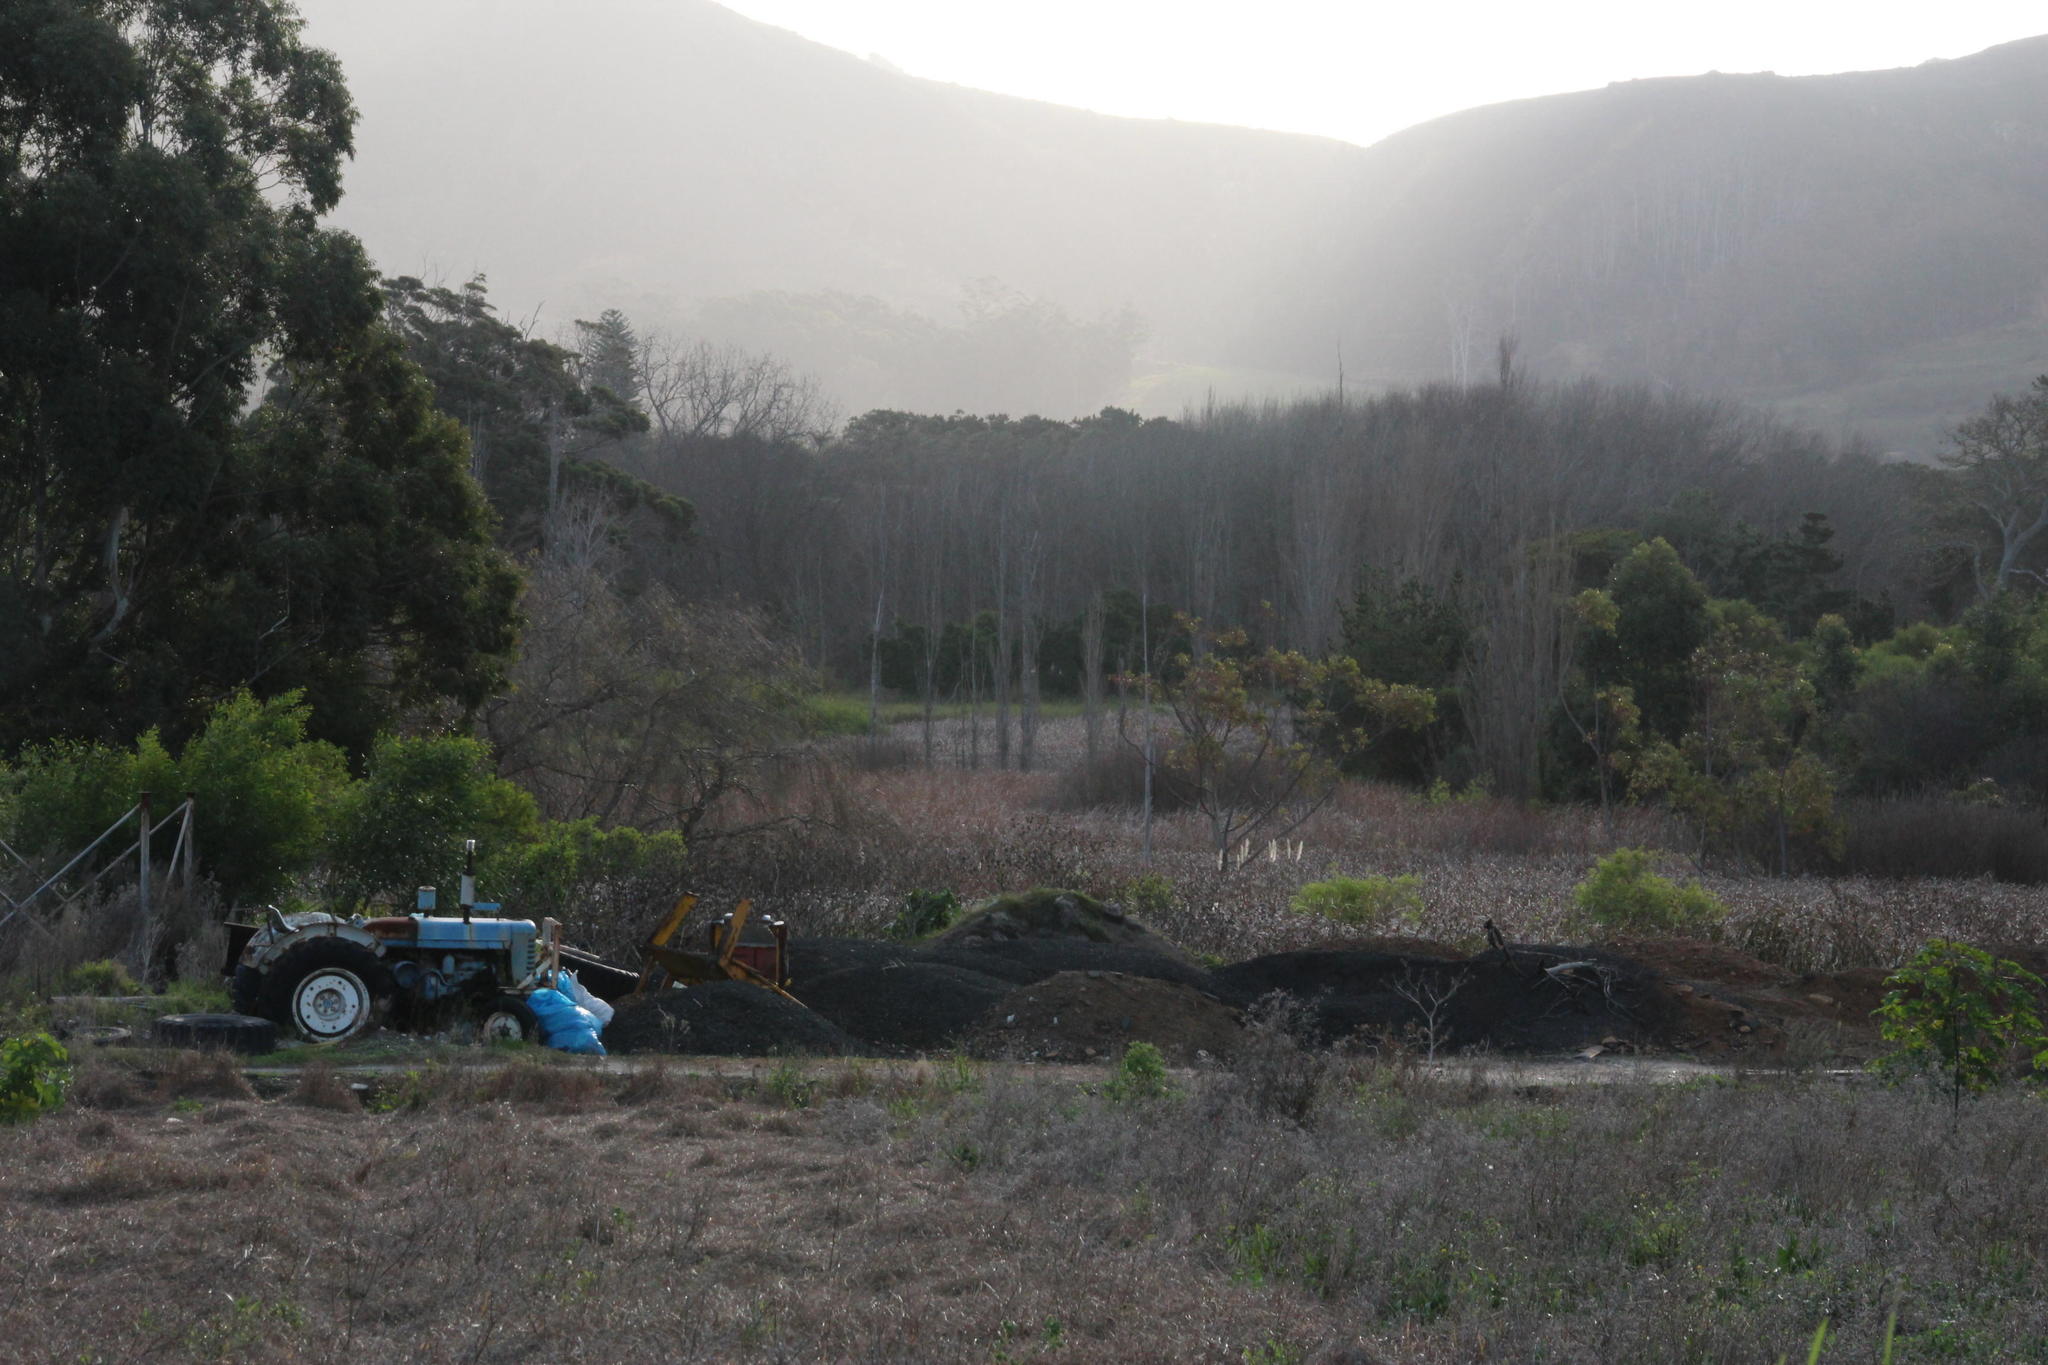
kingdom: Plantae
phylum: Tracheophyta
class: Liliopsida
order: Poales
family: Poaceae
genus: Cortaderia
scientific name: Cortaderia selloana
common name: Uruguayan pampas grass
